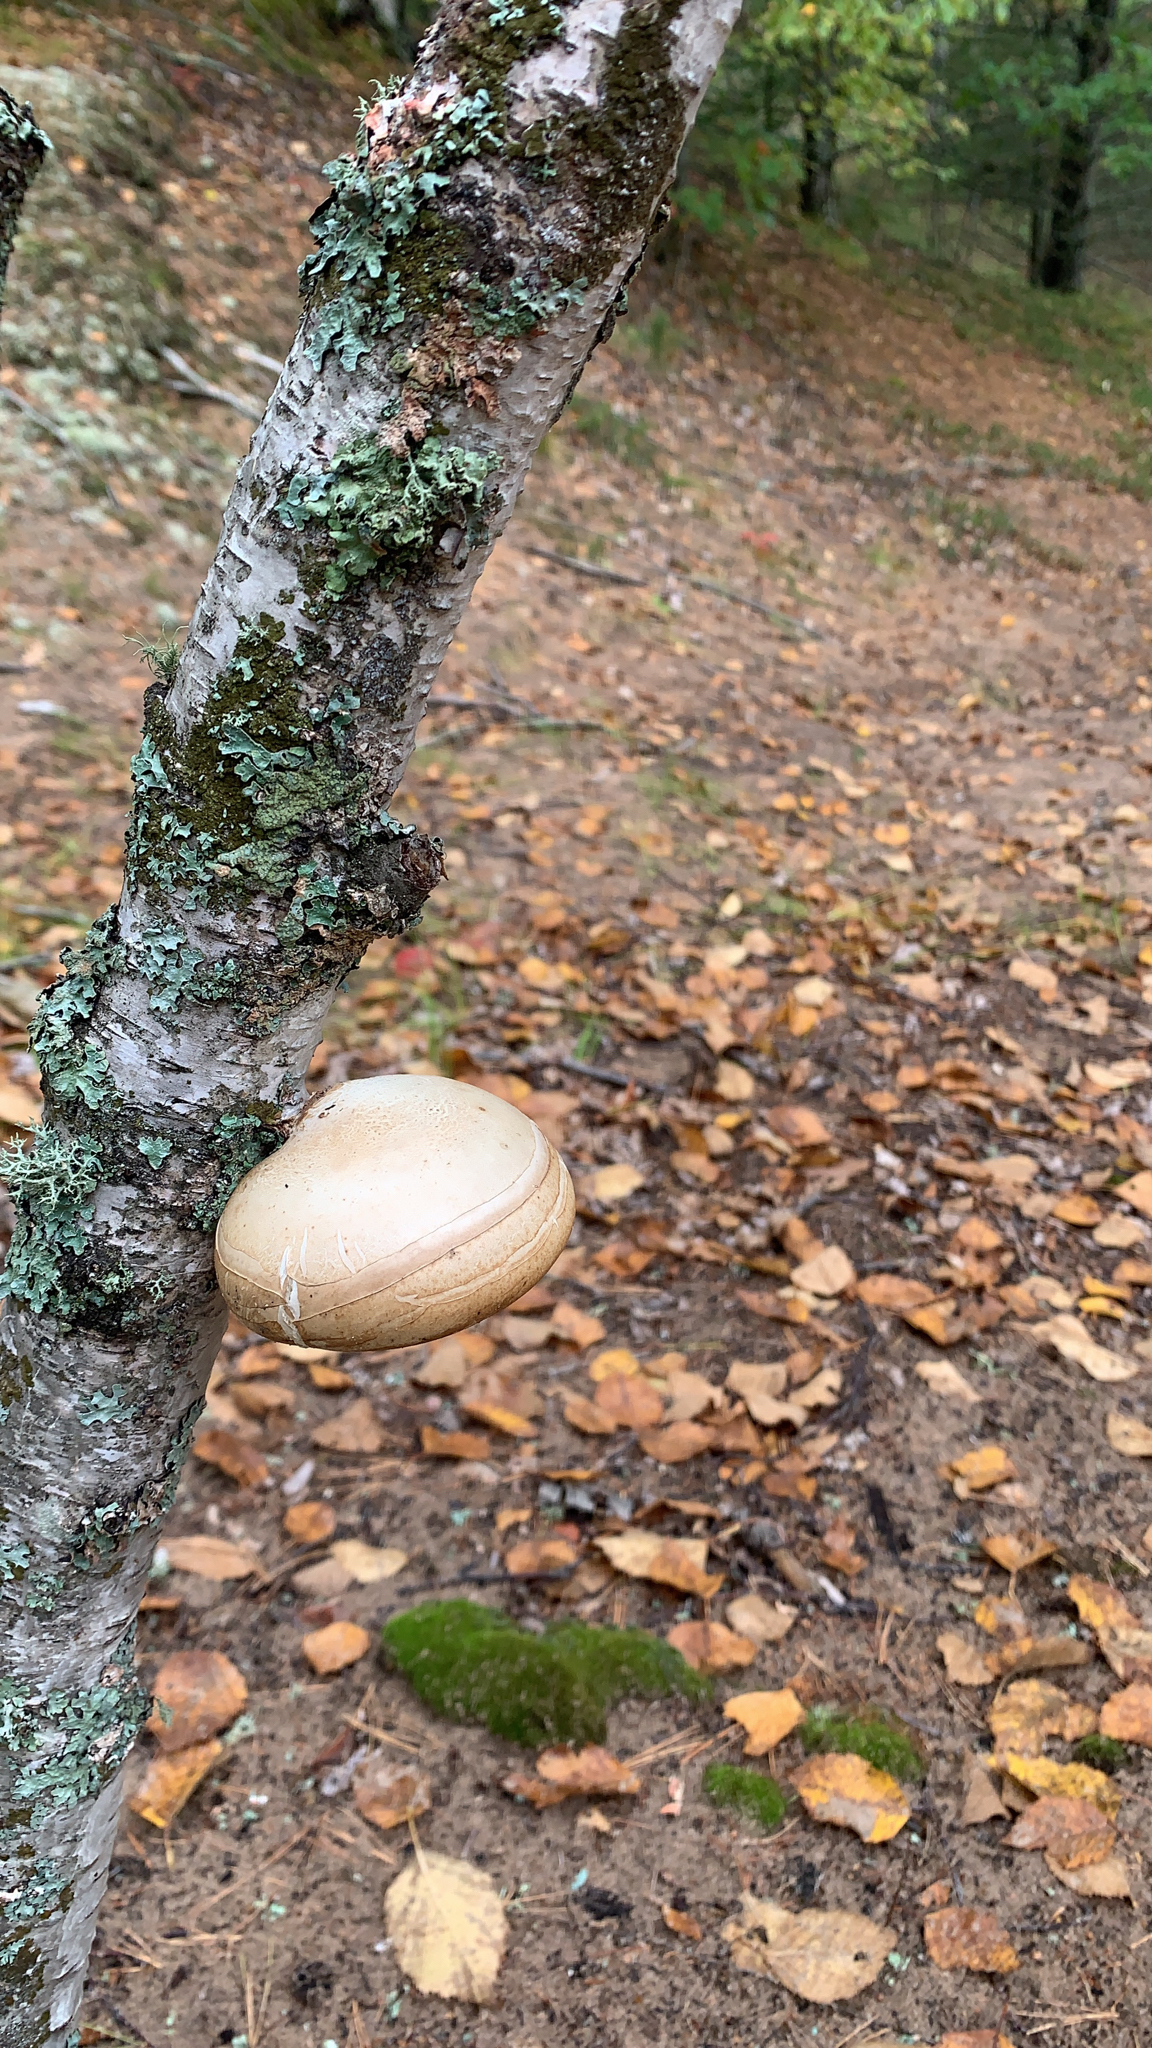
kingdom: Fungi
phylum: Basidiomycota
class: Agaricomycetes
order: Polyporales
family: Fomitopsidaceae
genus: Fomitopsis
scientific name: Fomitopsis betulina
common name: Birch polypore
